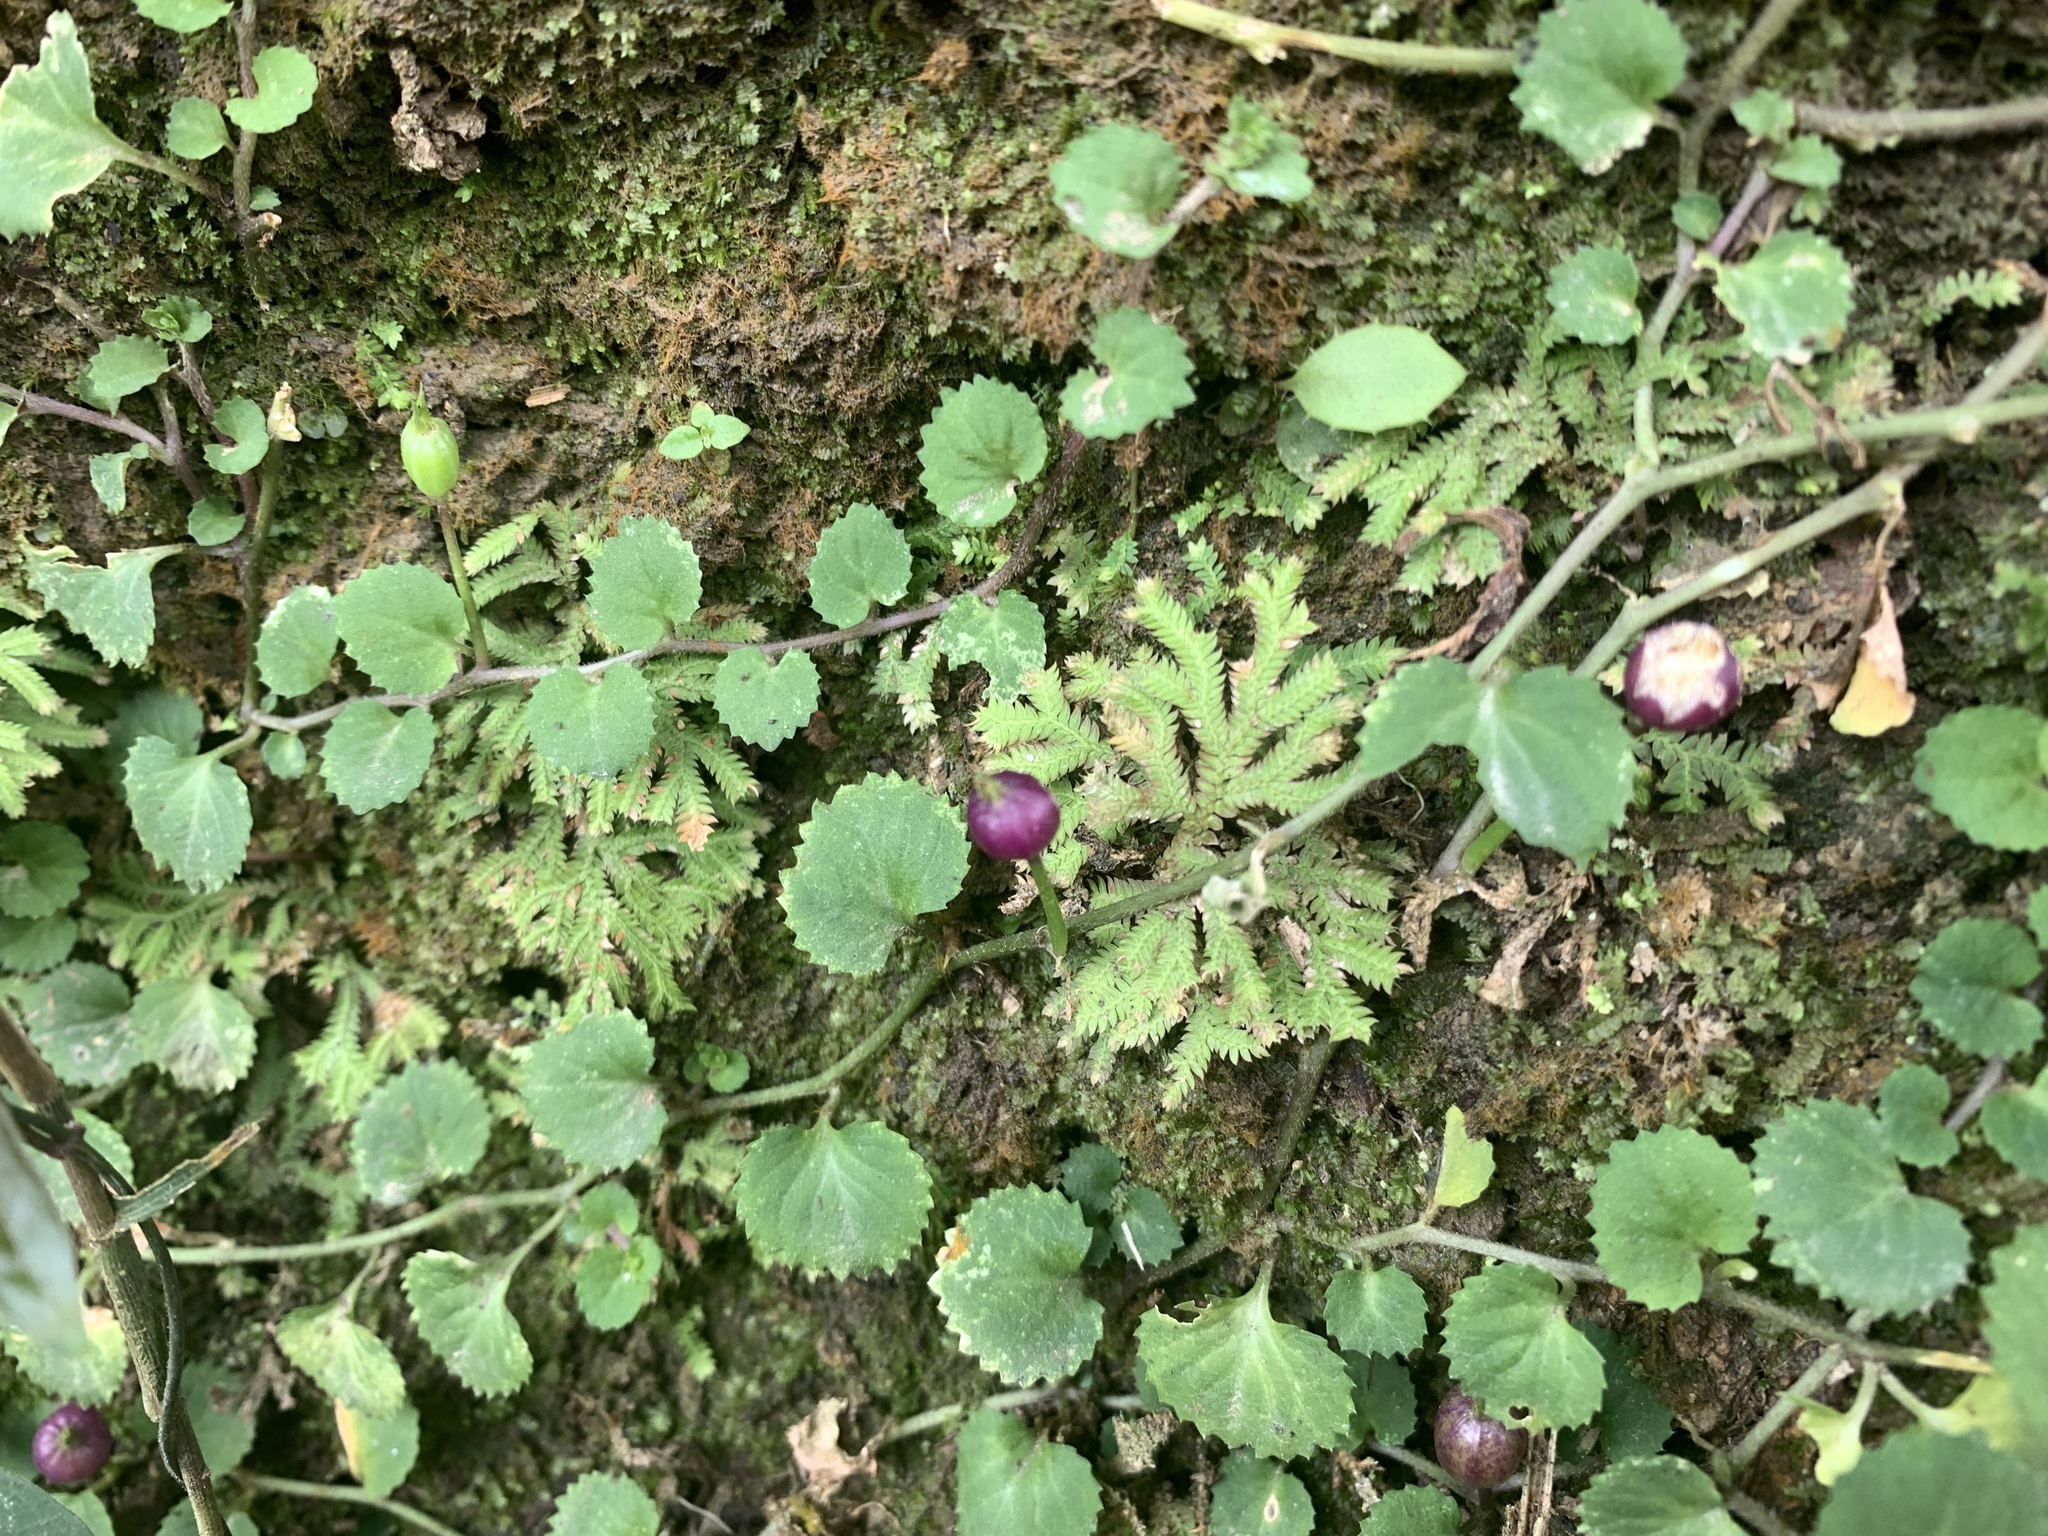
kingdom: Plantae
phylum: Tracheophyta
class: Magnoliopsida
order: Asterales
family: Campanulaceae
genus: Lobelia
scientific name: Lobelia nummularia
